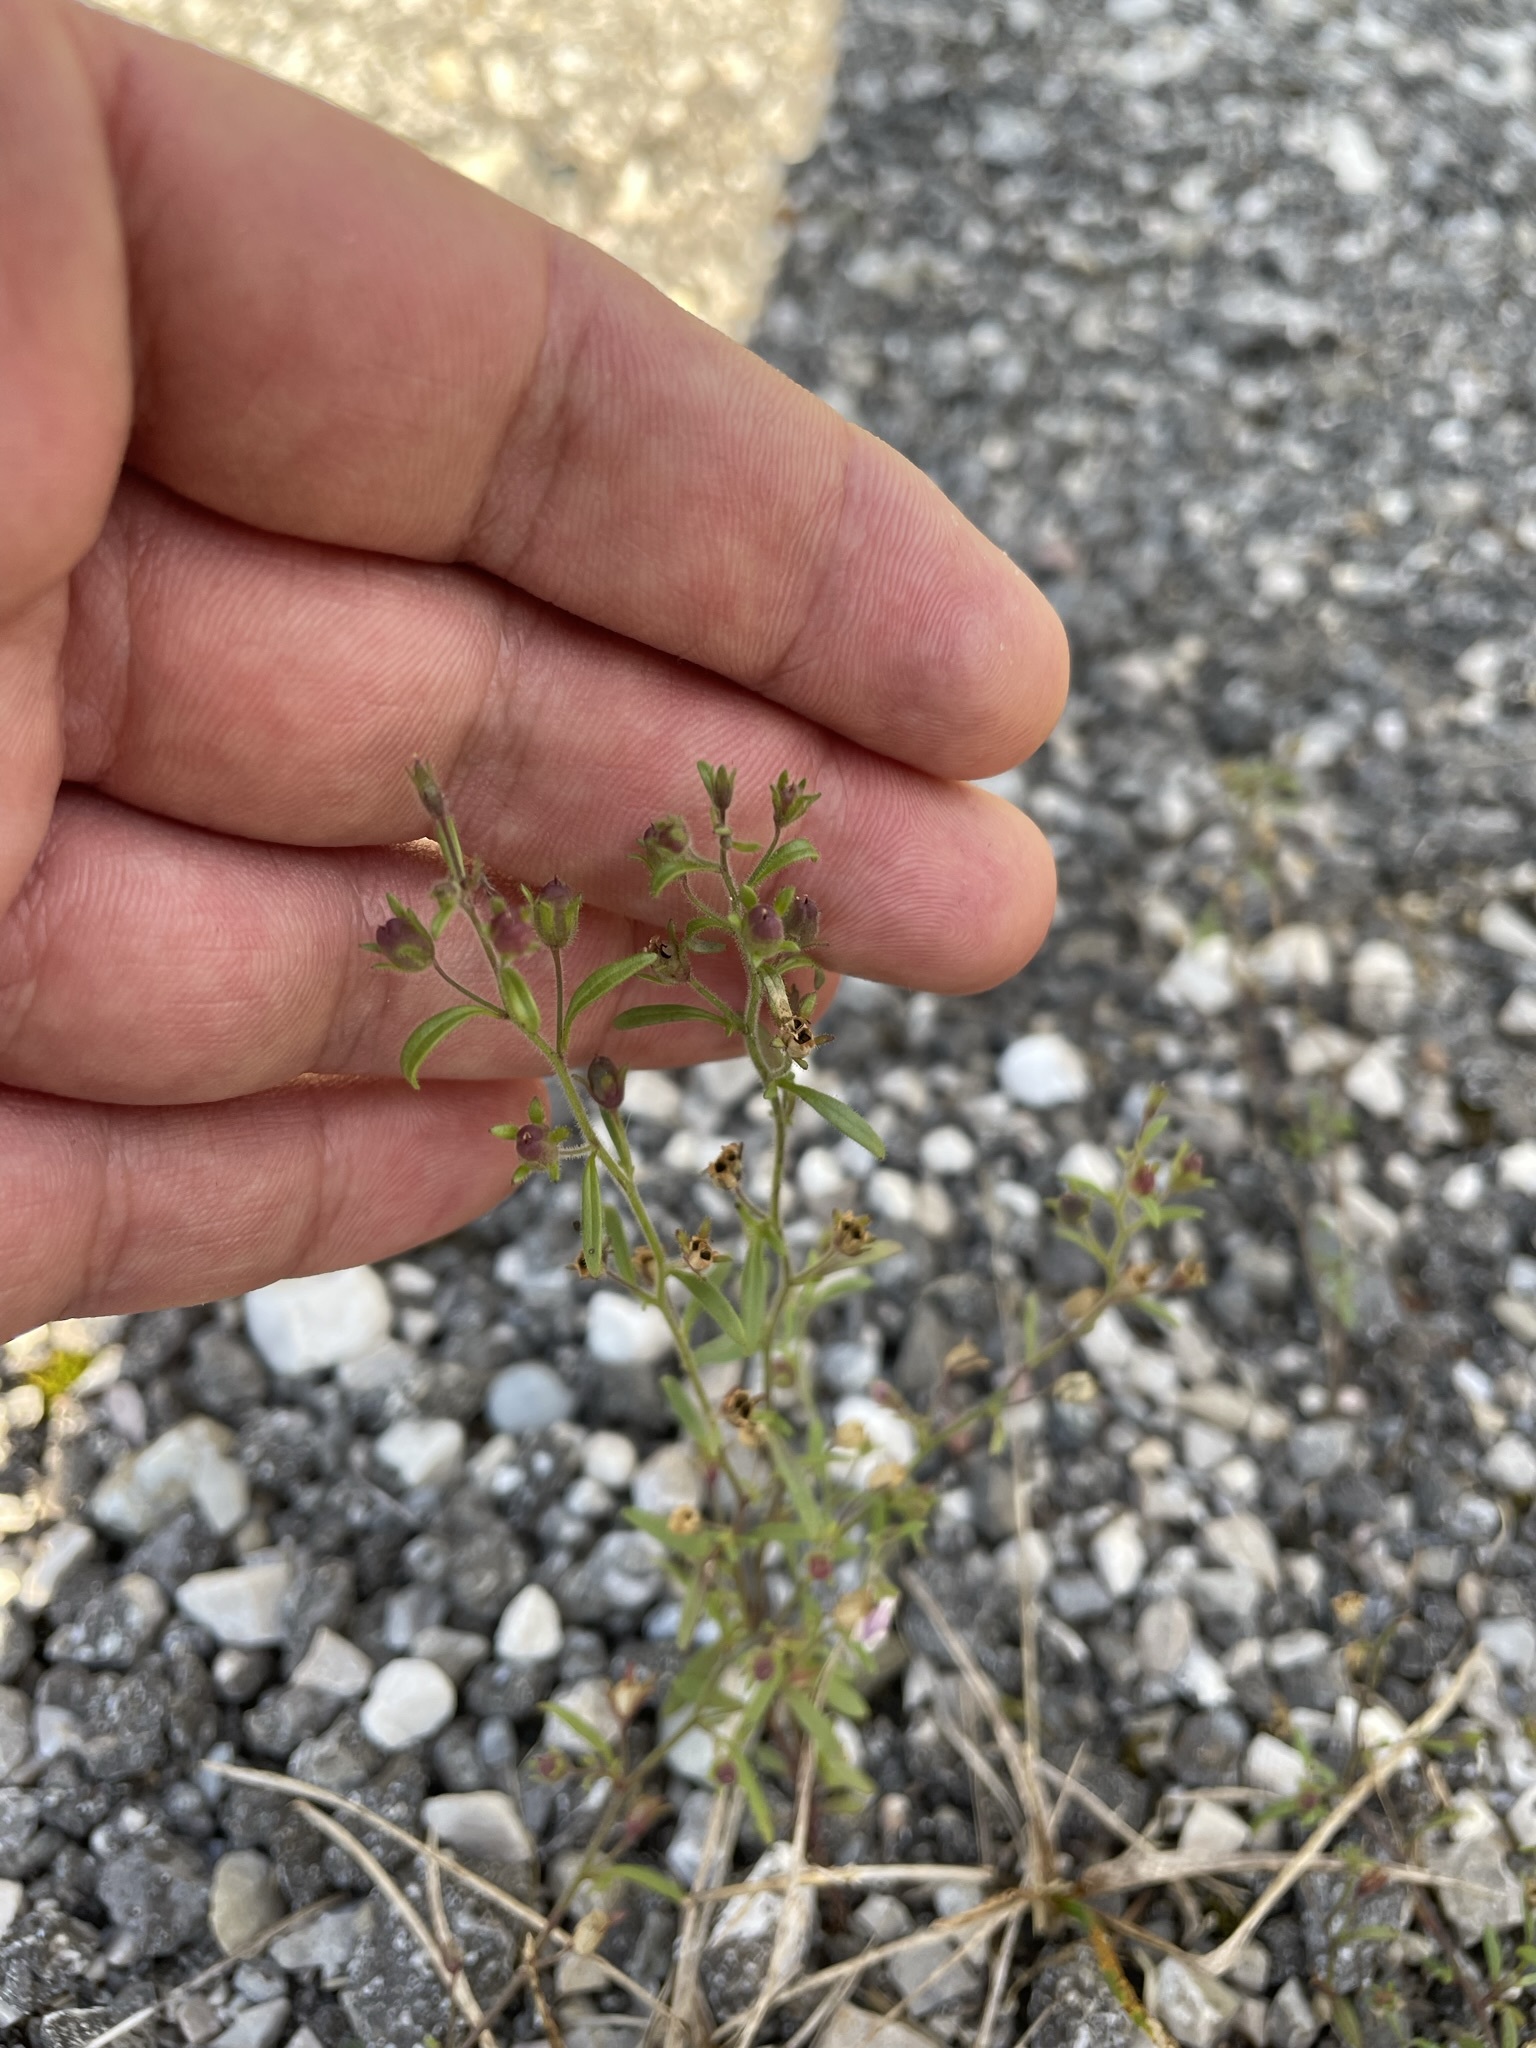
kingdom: Plantae
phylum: Tracheophyta
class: Magnoliopsida
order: Lamiales
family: Plantaginaceae
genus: Chaenorhinum
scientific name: Chaenorhinum minus
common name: Dwarf snapdragon
